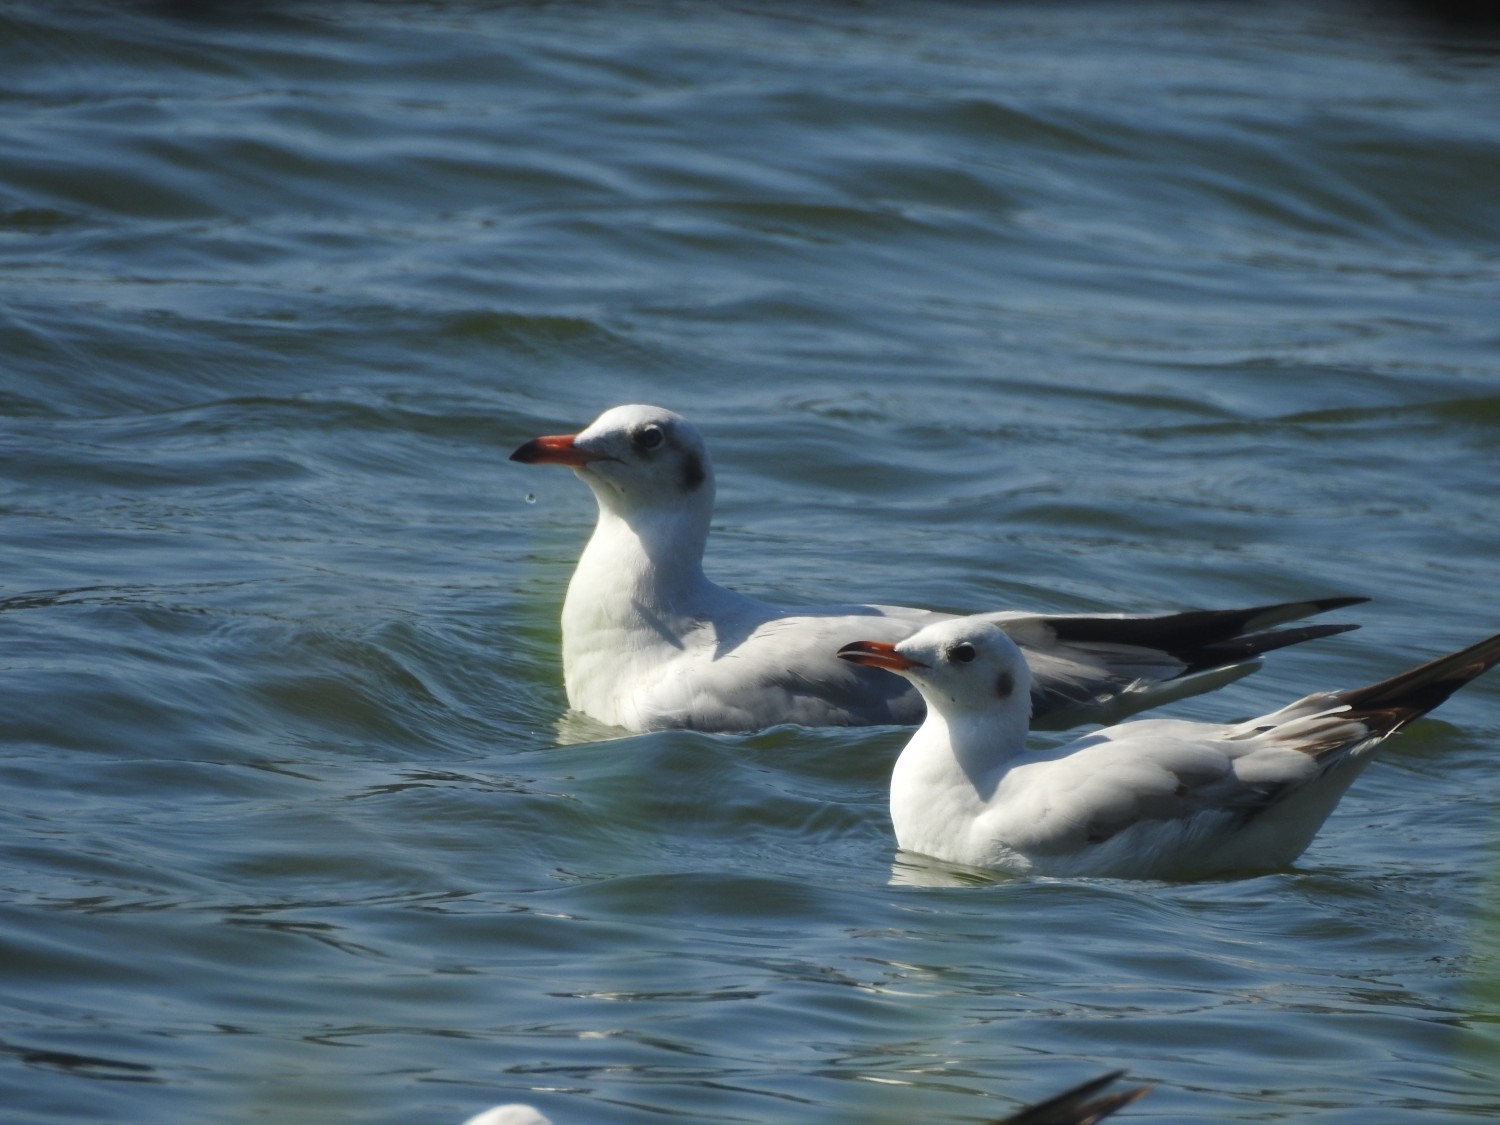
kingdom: Animalia
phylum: Chordata
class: Aves
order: Charadriiformes
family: Laridae
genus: Chroicocephalus
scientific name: Chroicocephalus ridibundus
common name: Black-headed gull
